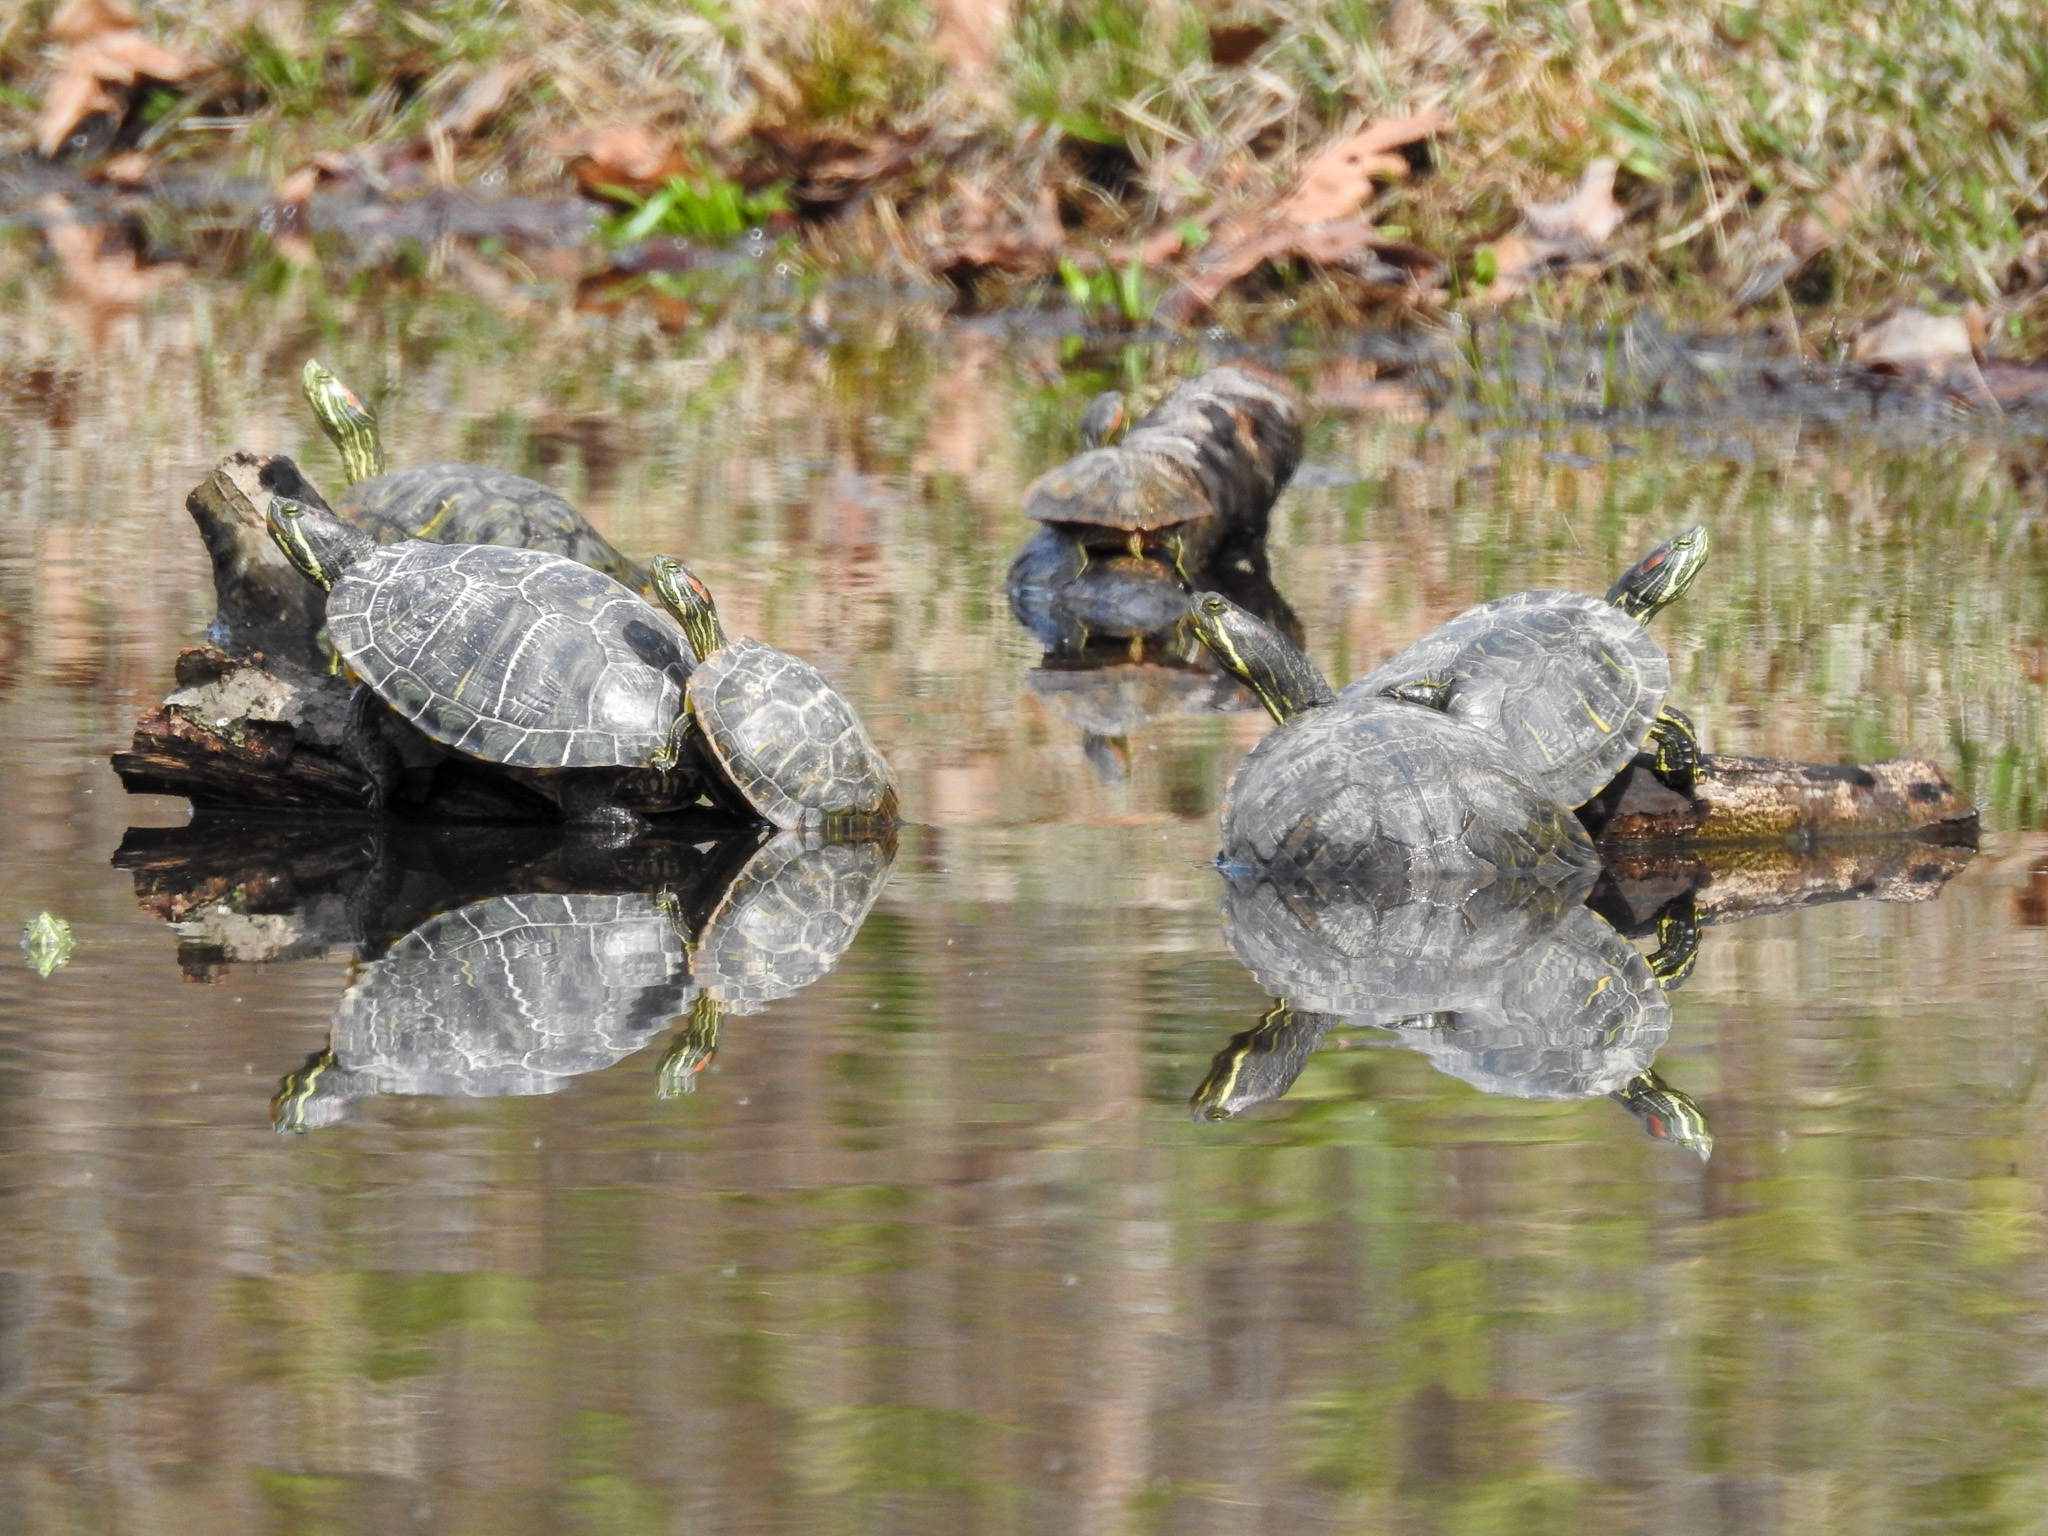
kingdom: Animalia
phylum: Chordata
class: Testudines
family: Emydidae
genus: Trachemys
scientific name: Trachemys scripta
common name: Slider
